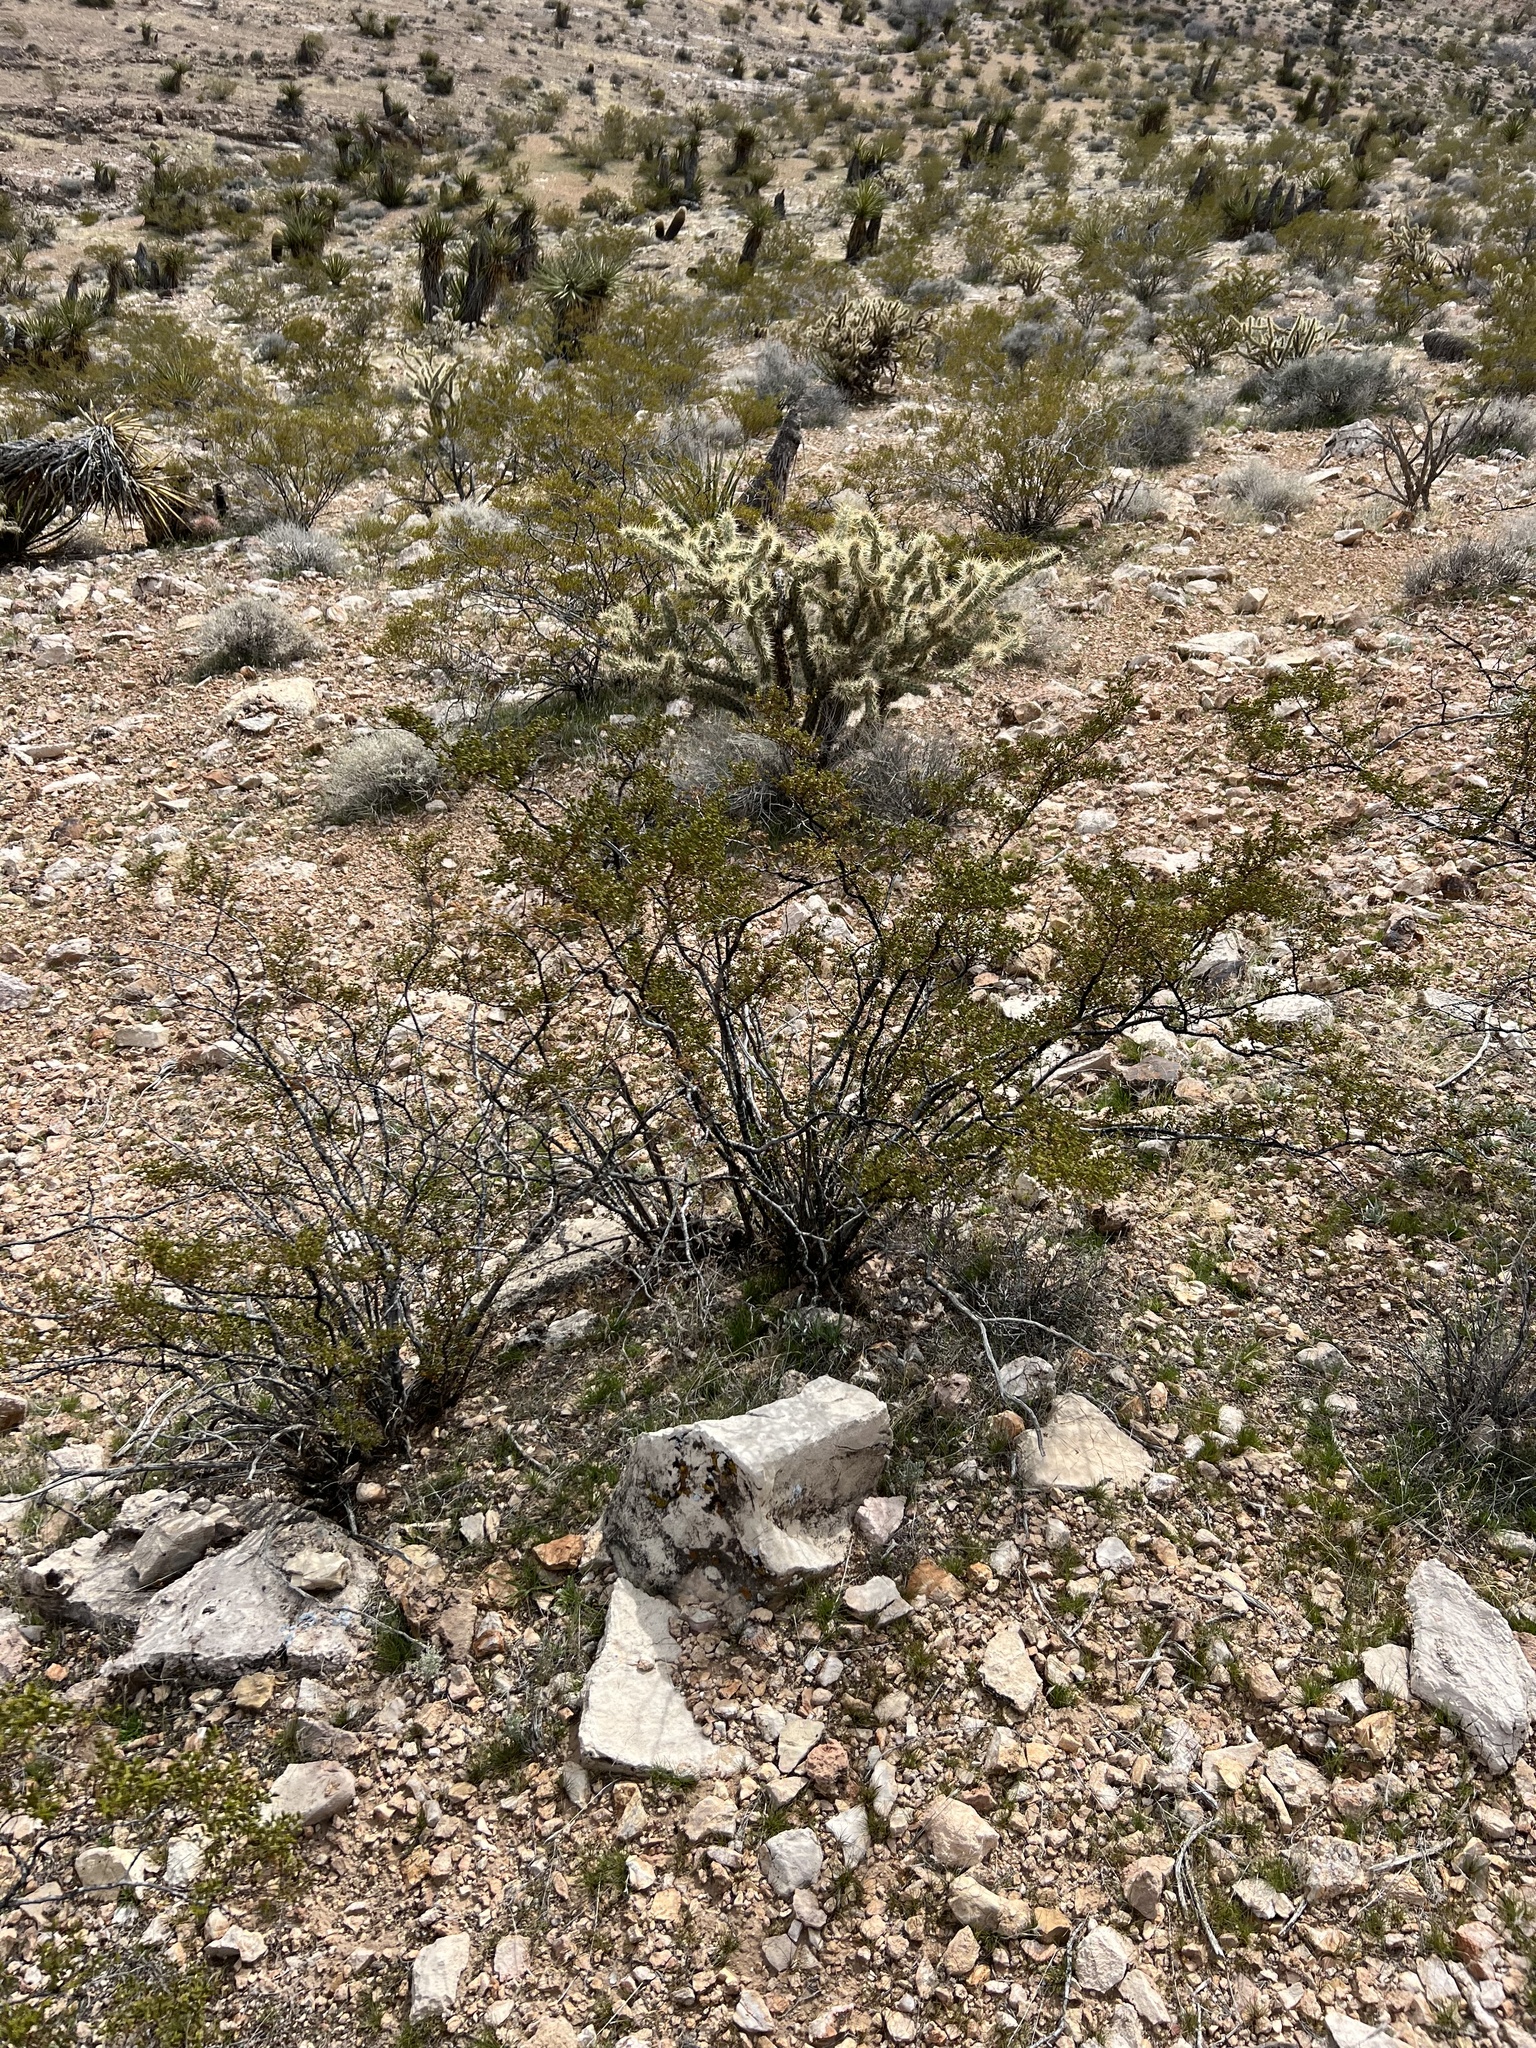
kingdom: Plantae
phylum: Tracheophyta
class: Magnoliopsida
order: Zygophyllales
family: Zygophyllaceae
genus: Larrea
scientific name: Larrea tridentata
